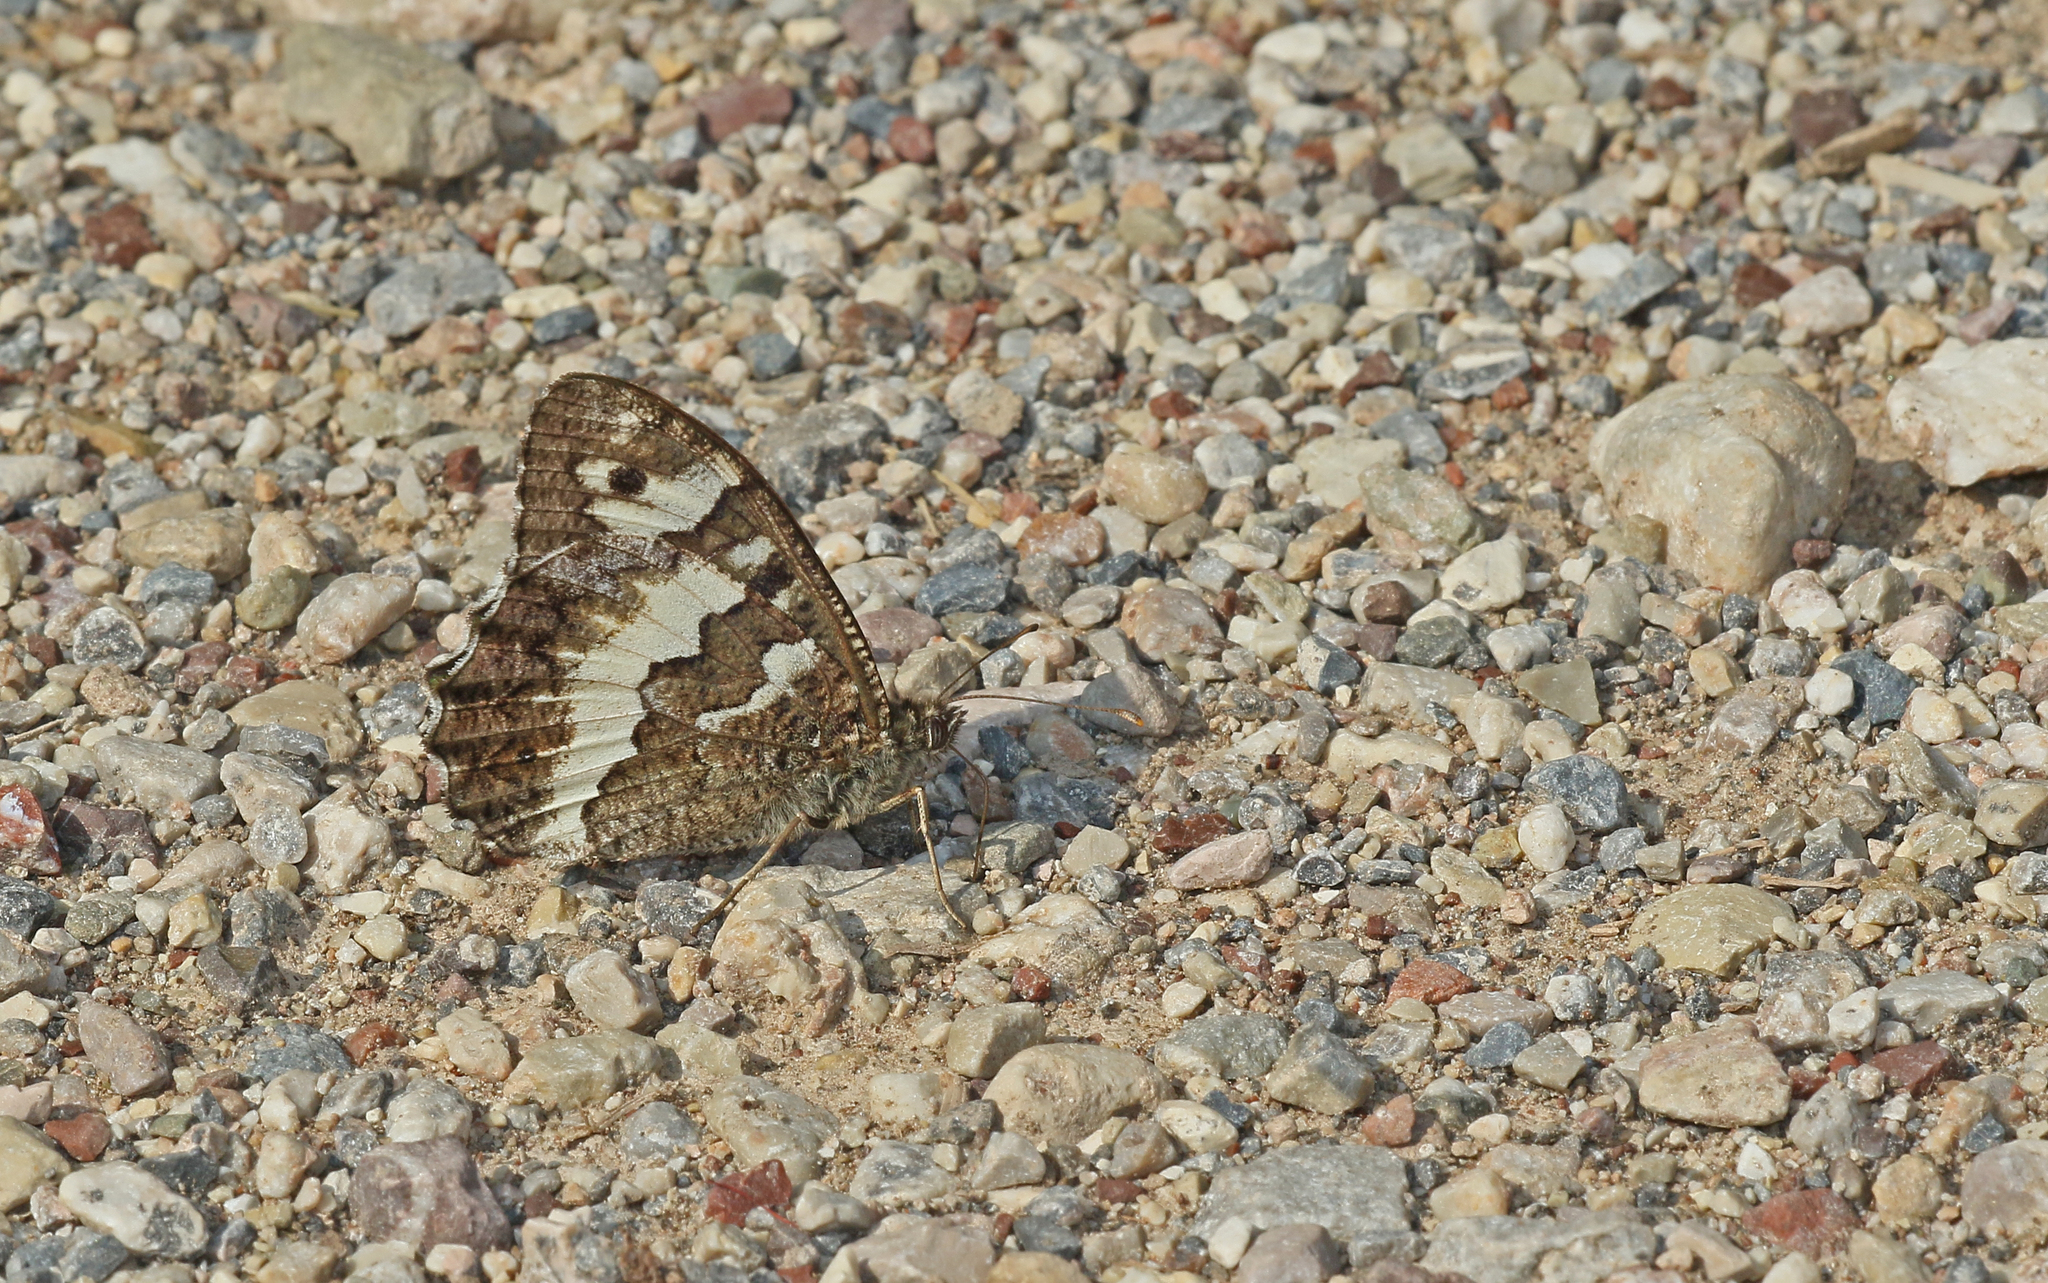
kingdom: Animalia
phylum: Arthropoda
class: Insecta
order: Lepidoptera
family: Lycaenidae
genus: Loweia
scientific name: Loweia tityrus
